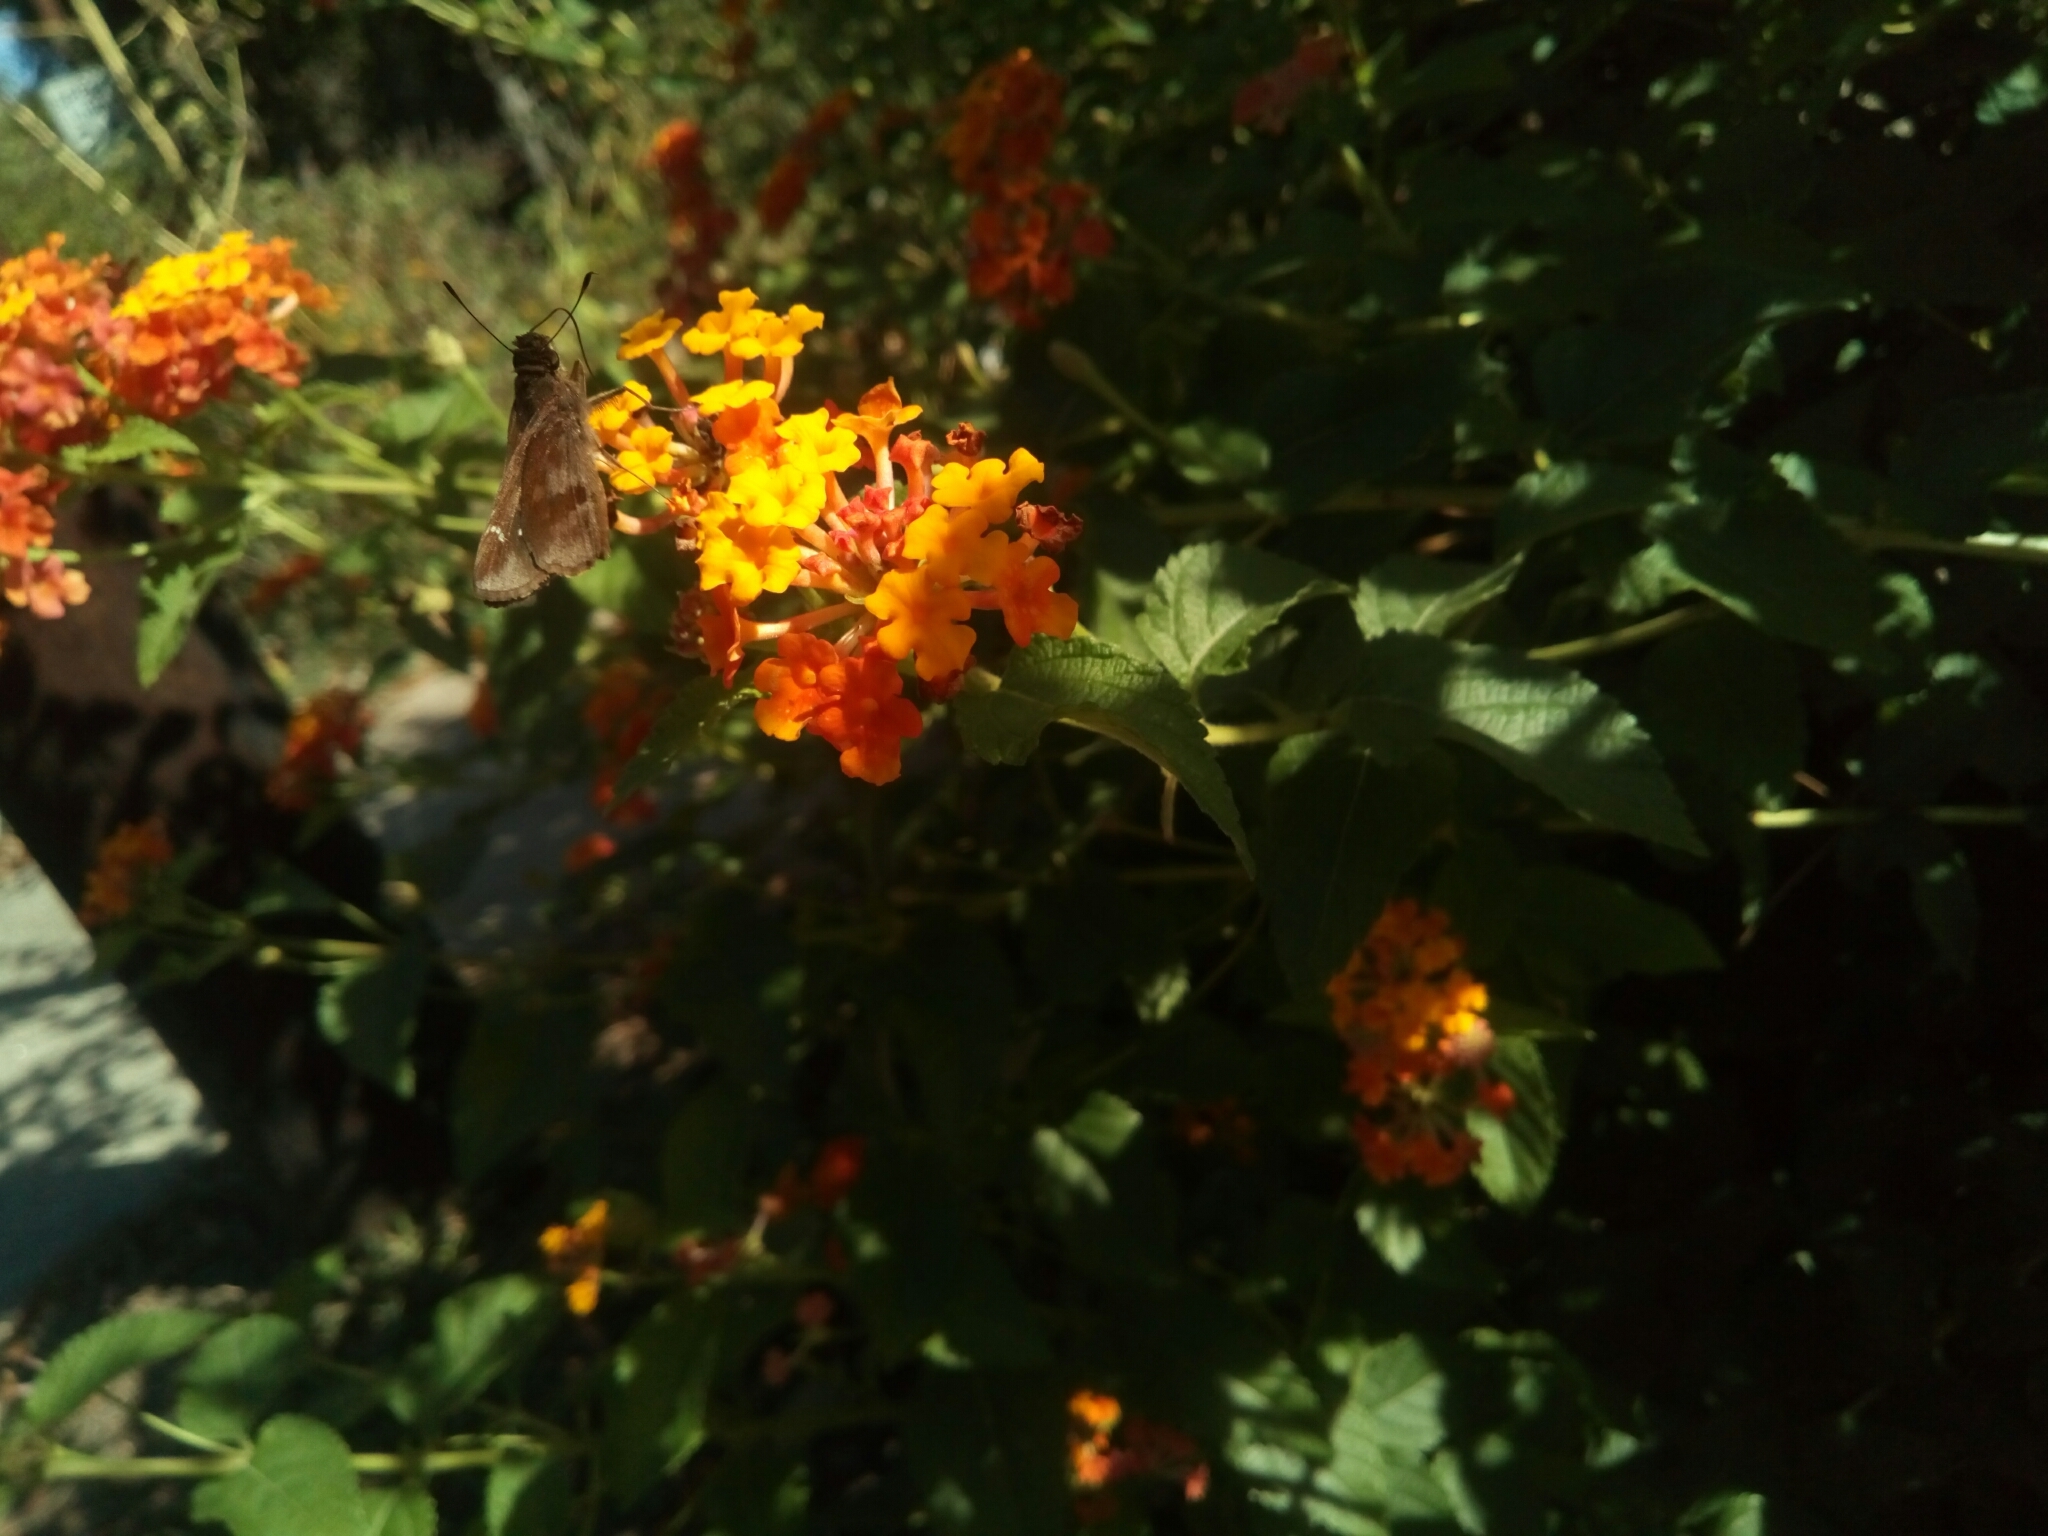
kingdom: Animalia
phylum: Arthropoda
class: Insecta
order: Lepidoptera
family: Hesperiidae
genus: Lerema
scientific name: Lerema accius
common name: Clouded skipper
